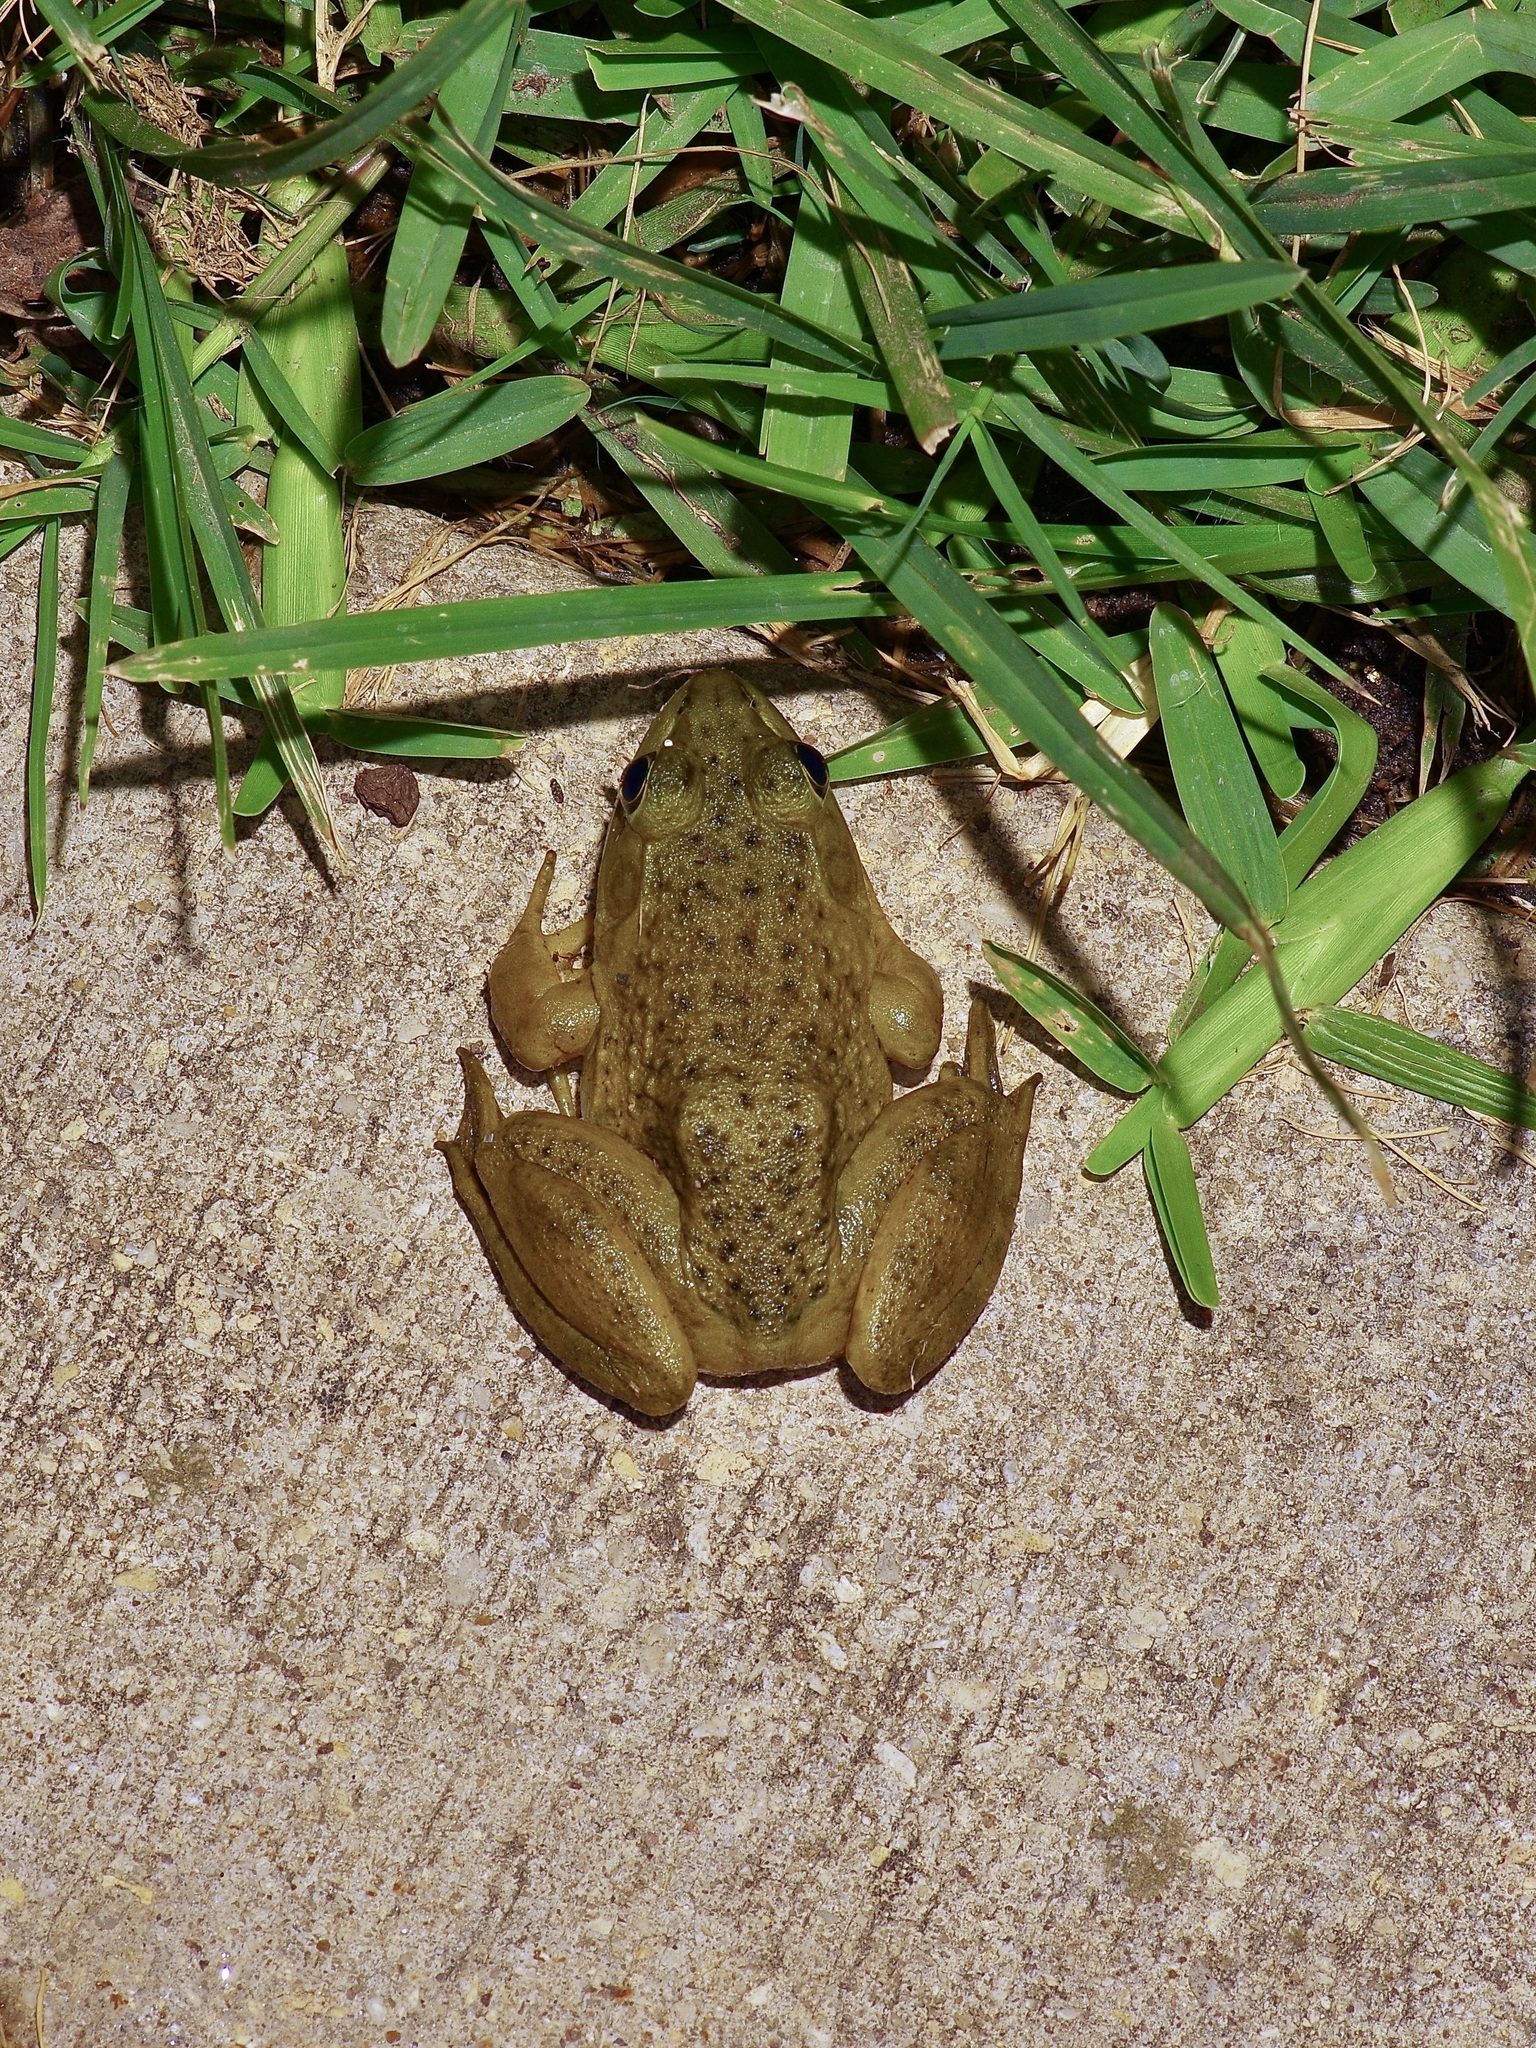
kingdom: Animalia
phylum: Chordata
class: Amphibia
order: Anura
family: Ranidae
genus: Lithobates
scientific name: Lithobates catesbeianus
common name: American bullfrog
